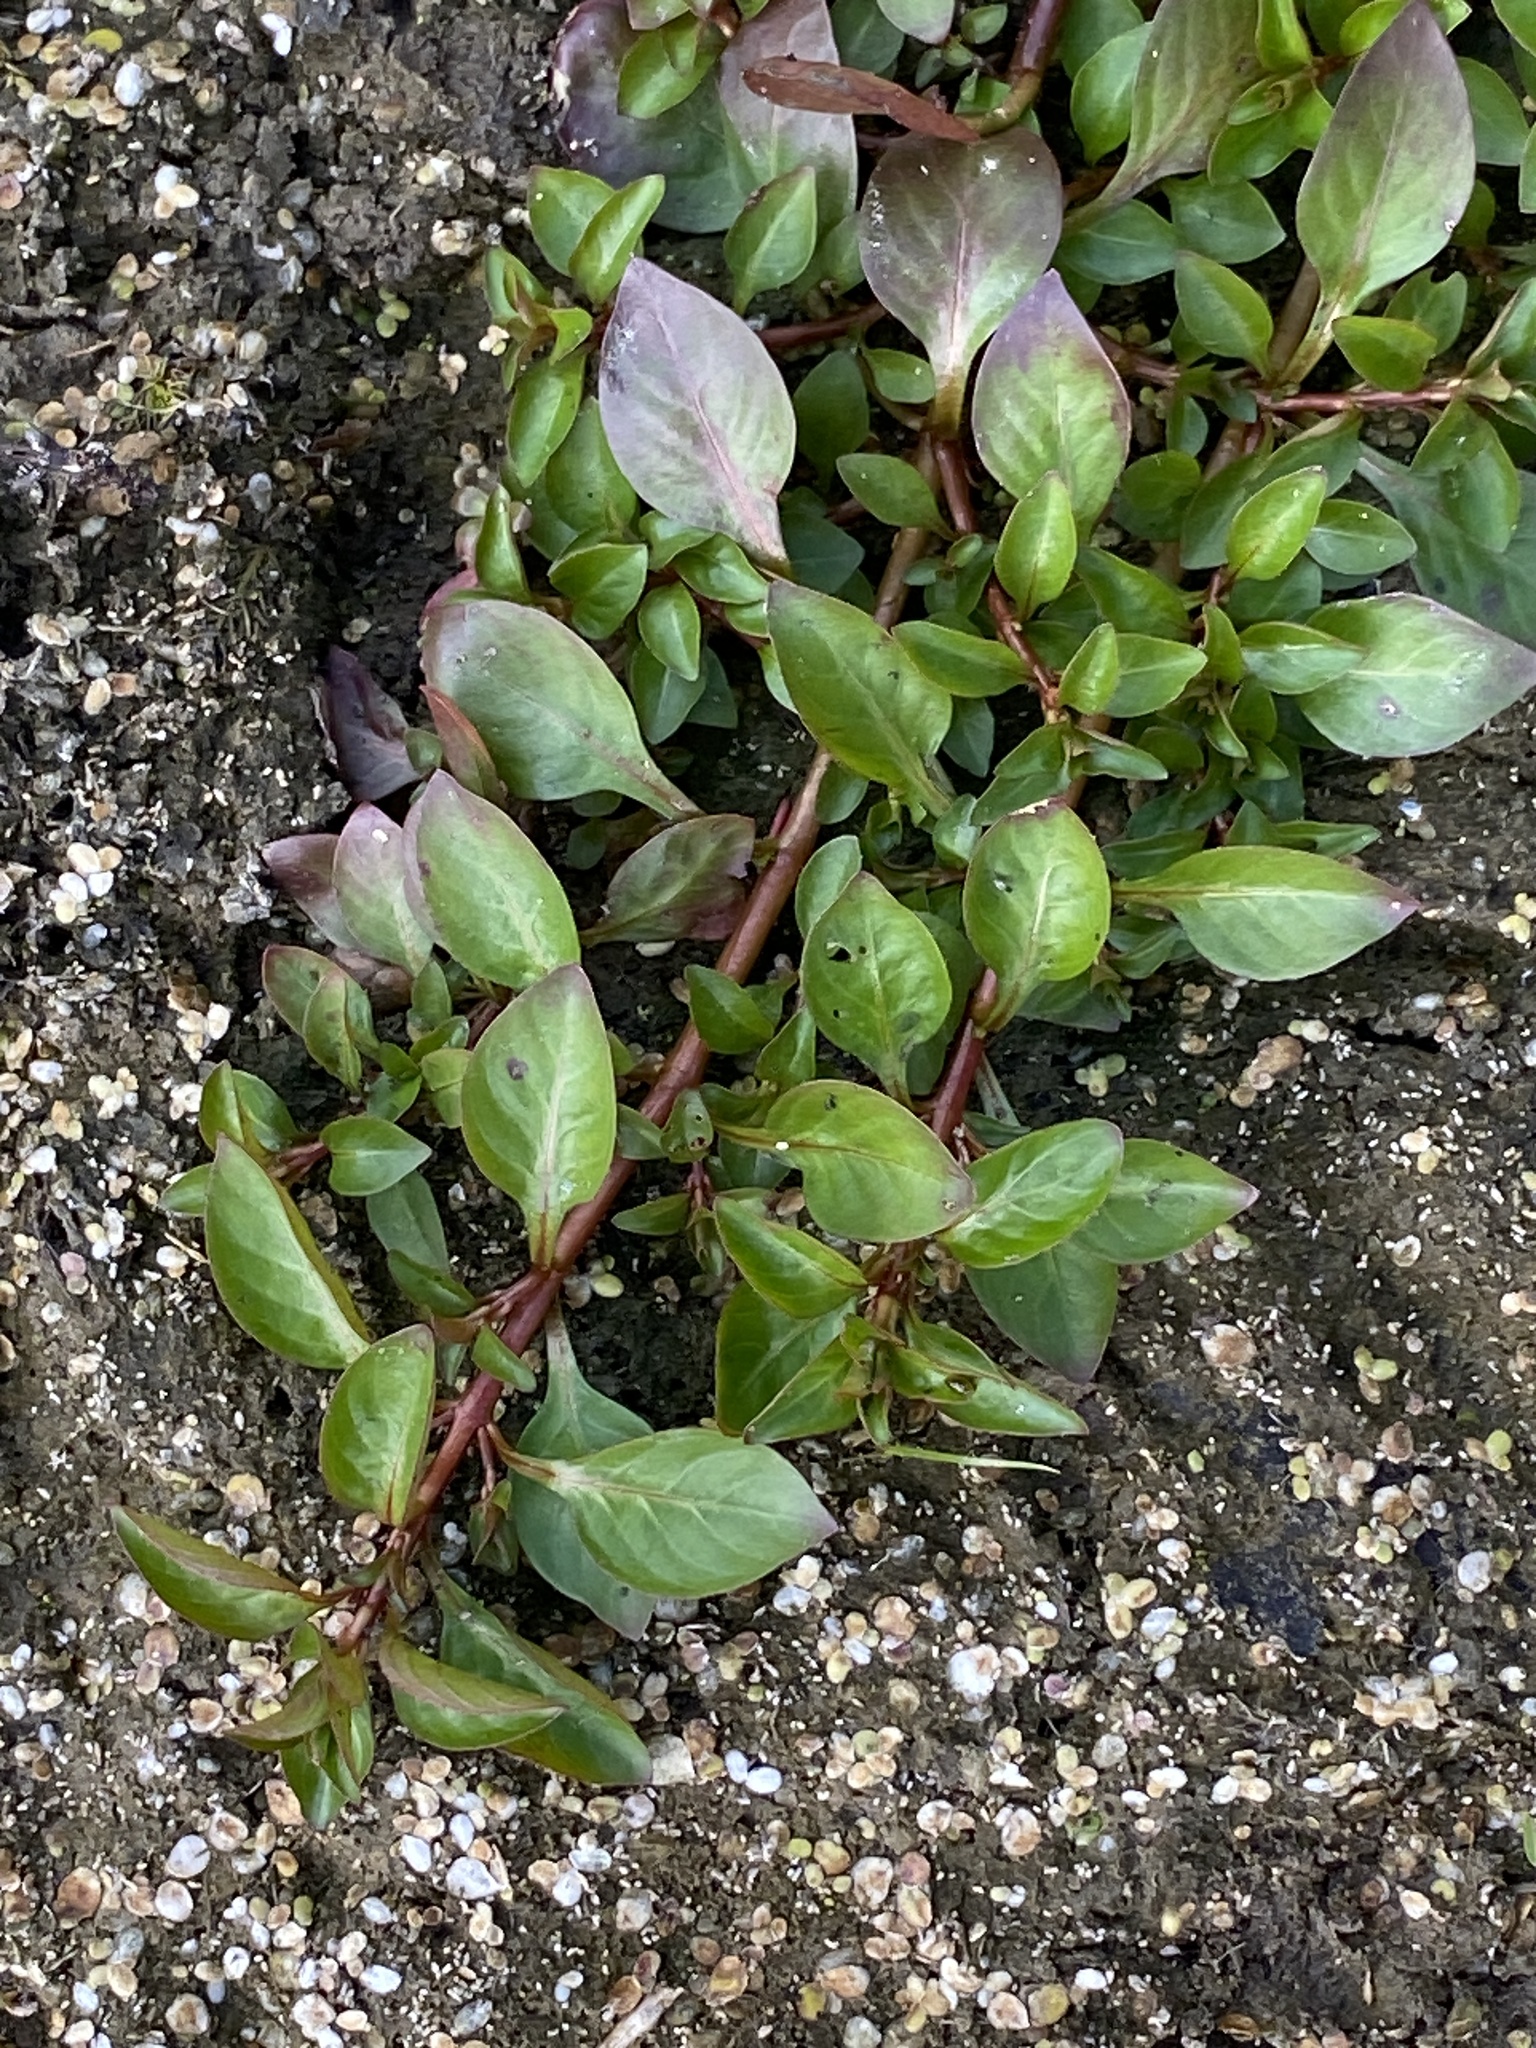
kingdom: Plantae
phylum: Tracheophyta
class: Magnoliopsida
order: Myrtales
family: Onagraceae
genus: Ludwigia
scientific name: Ludwigia palustris
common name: Hampshire-purslane
